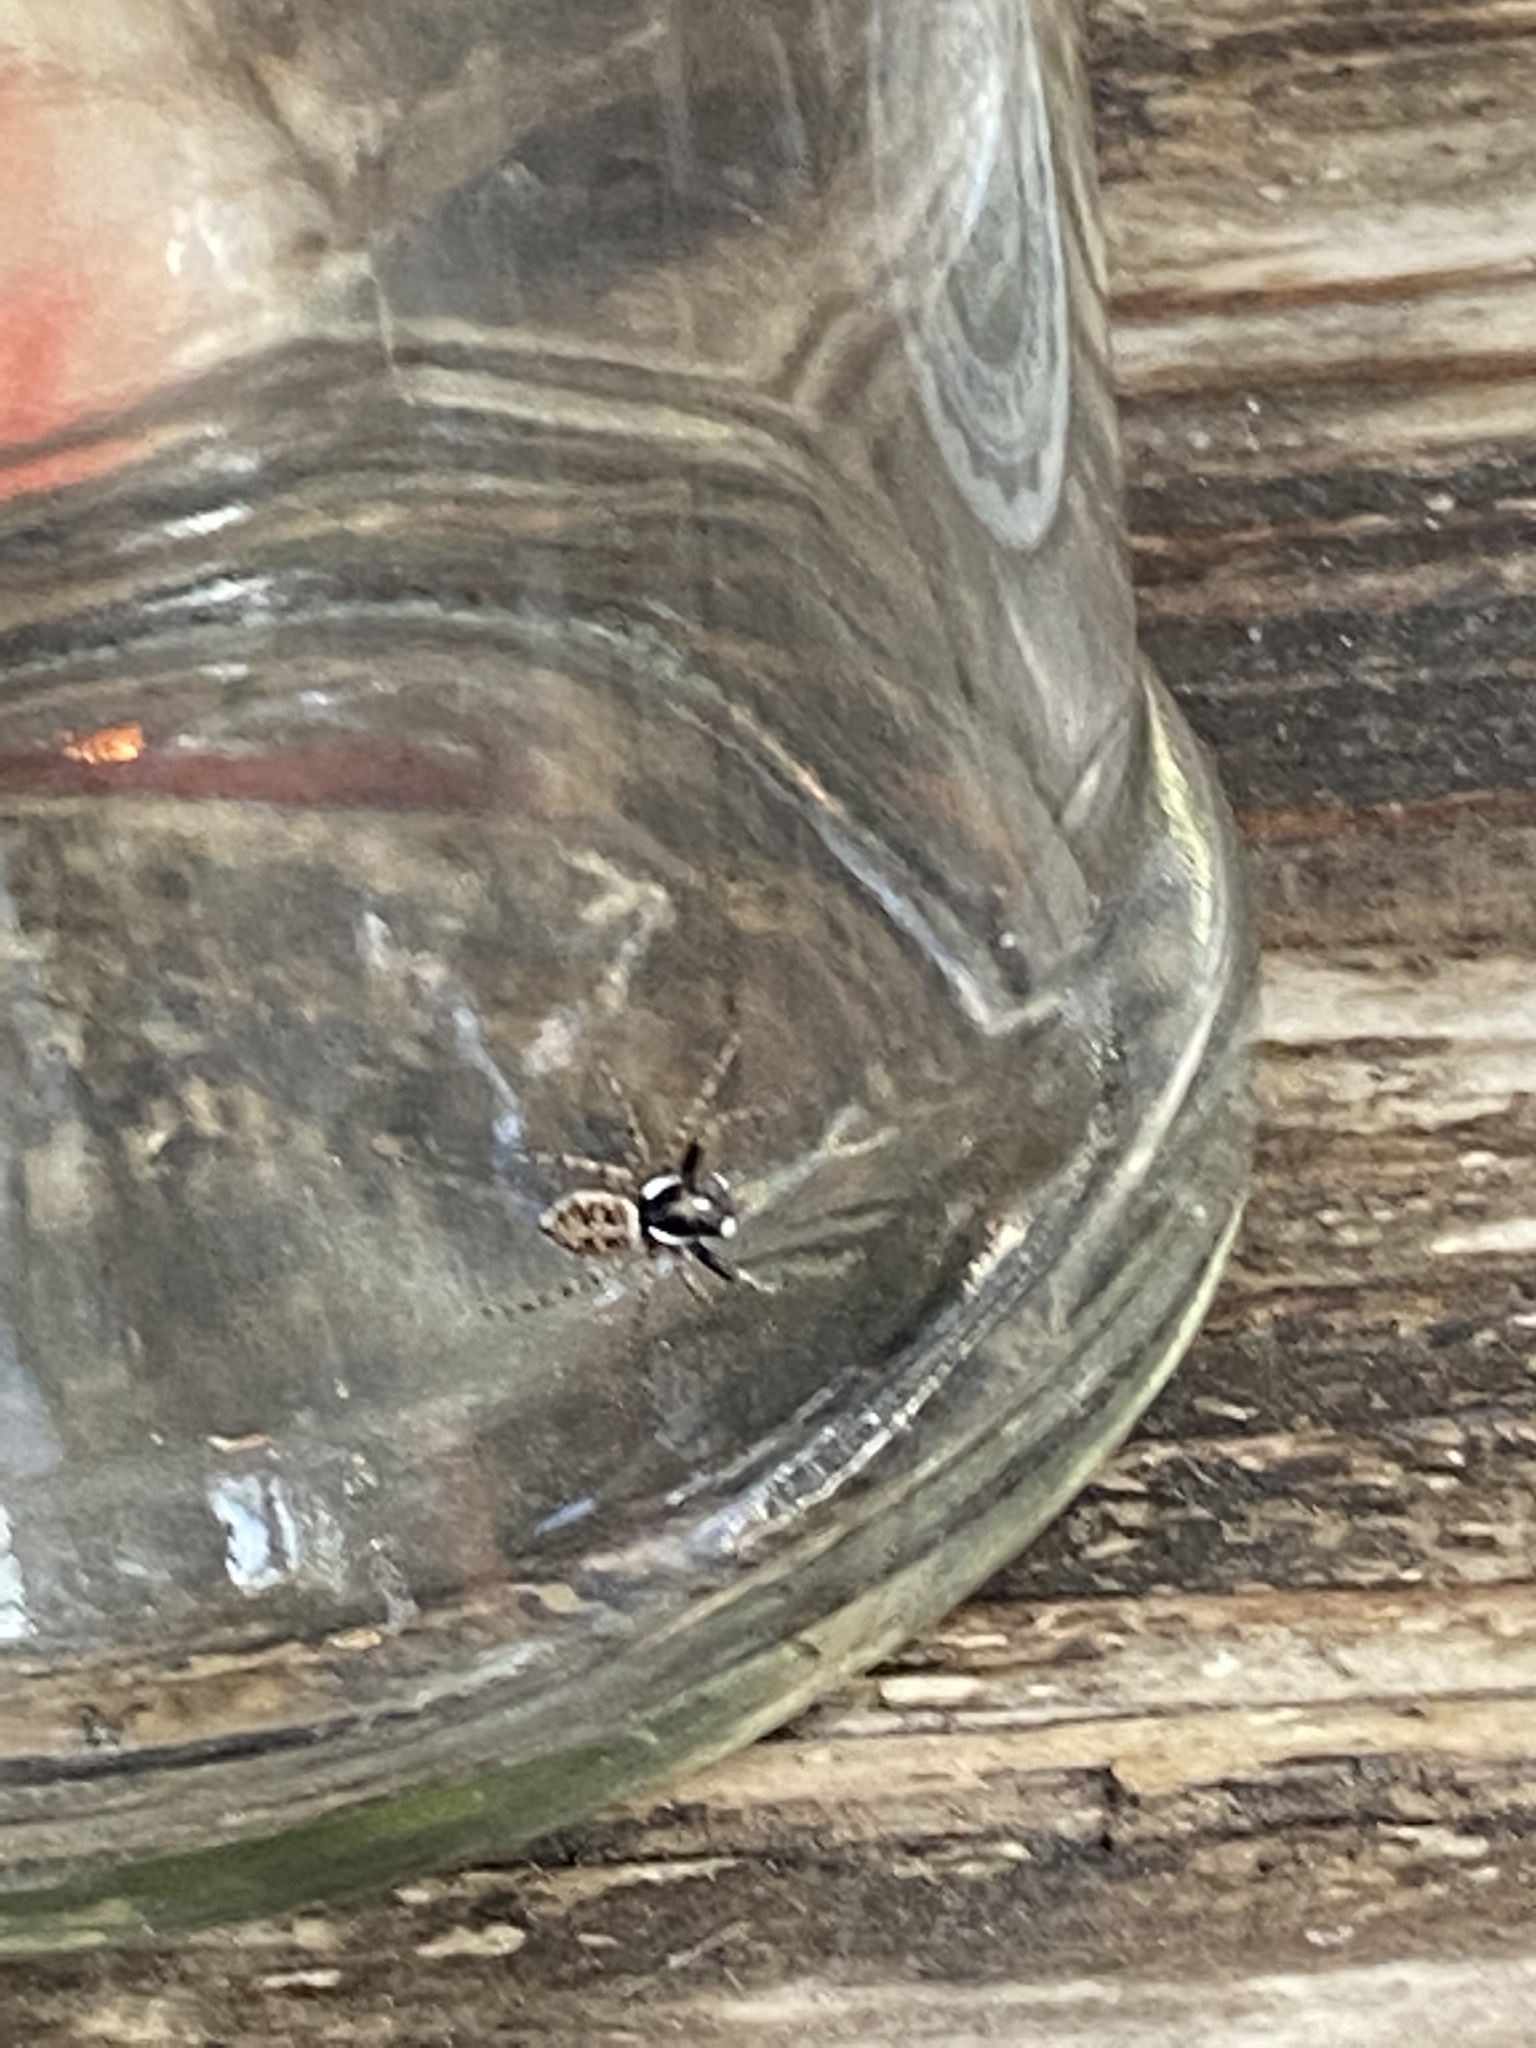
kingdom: Animalia
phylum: Arthropoda
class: Arachnida
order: Araneae
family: Salticidae
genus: Menemerus
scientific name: Menemerus semilimbatus
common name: Jumping spider
